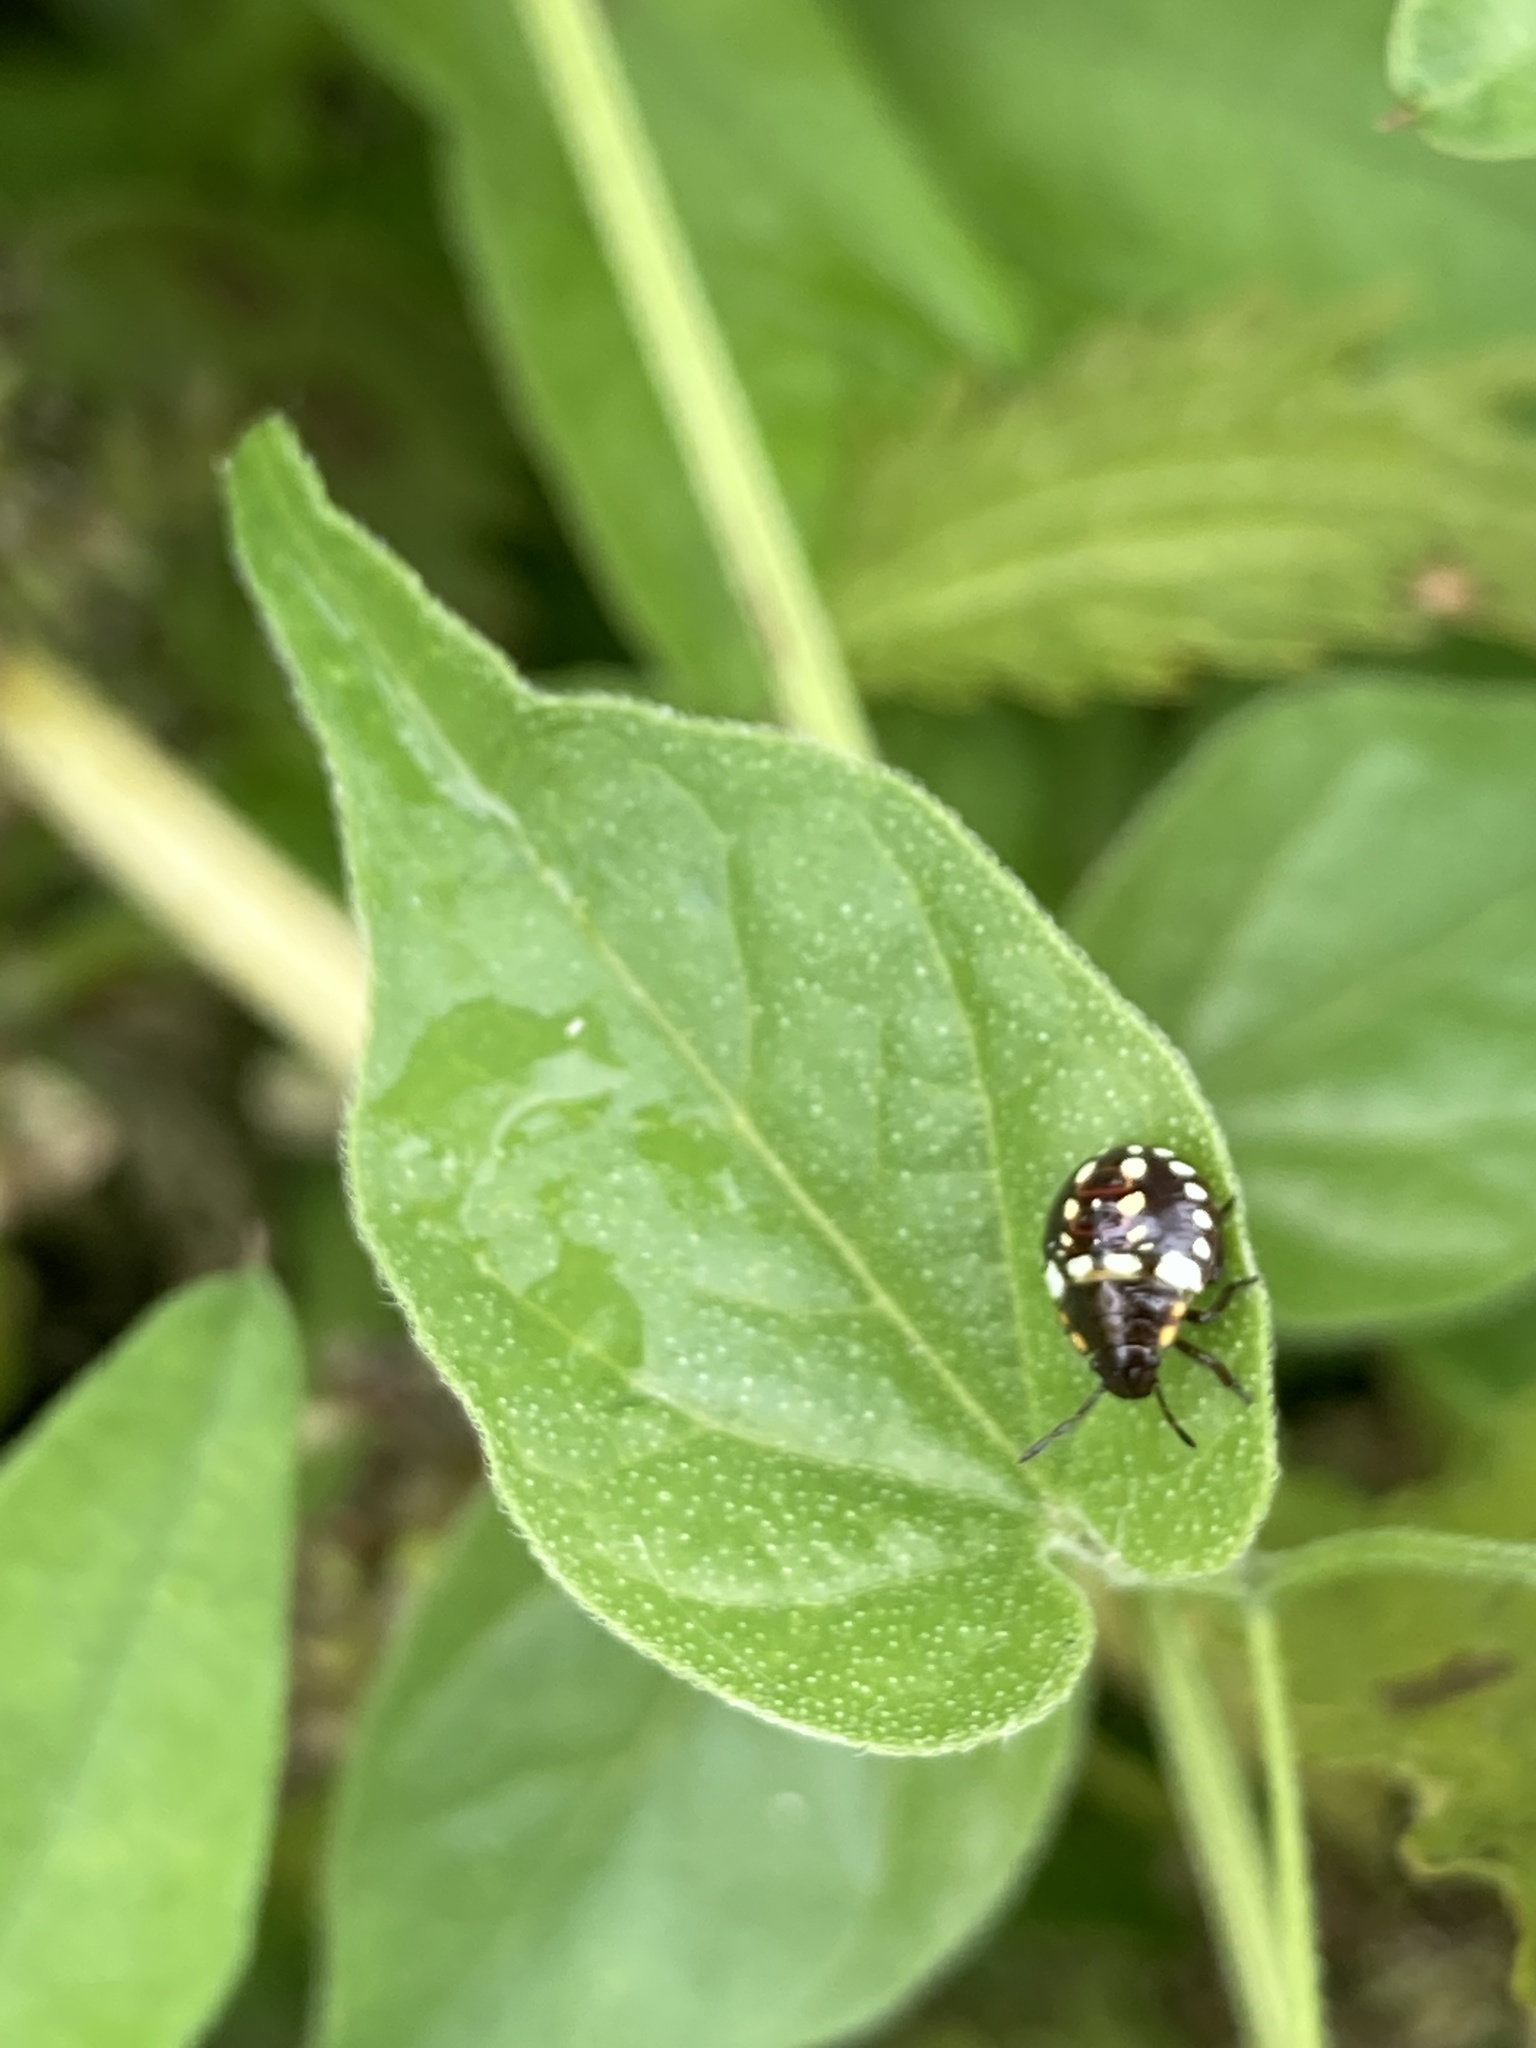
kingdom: Animalia
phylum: Arthropoda
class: Insecta
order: Hemiptera
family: Pentatomidae
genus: Nezara
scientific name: Nezara viridula
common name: Southern green stink bug
